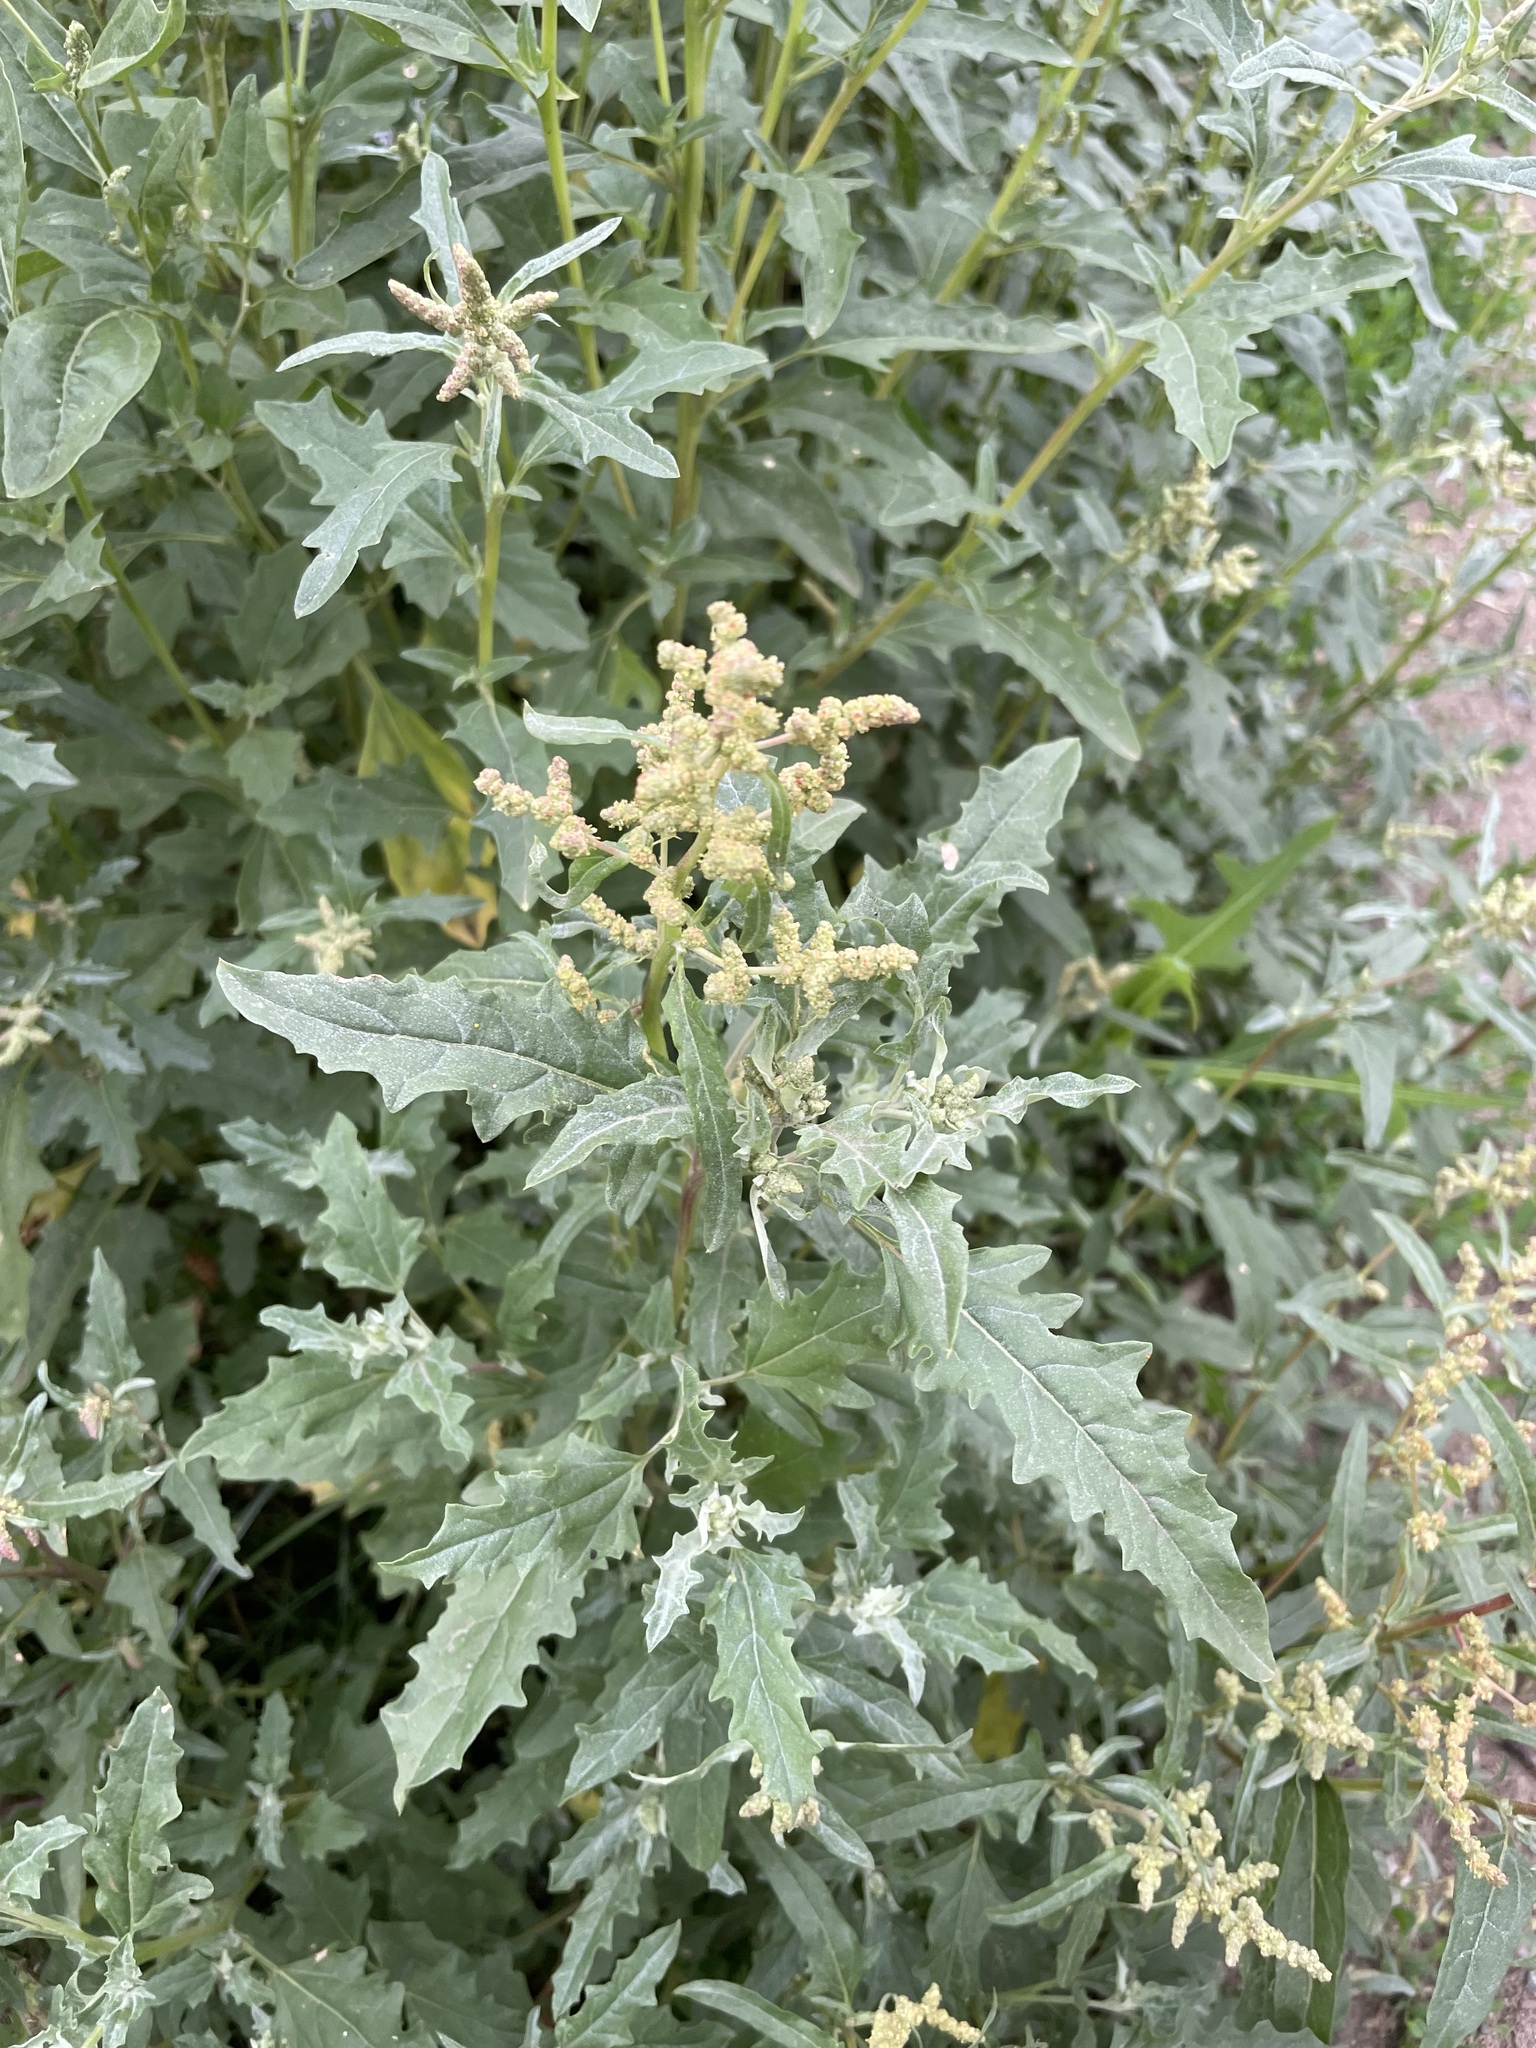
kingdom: Plantae
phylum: Tracheophyta
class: Magnoliopsida
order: Caryophyllales
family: Amaranthaceae
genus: Atriplex
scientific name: Atriplex tatarica
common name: Tatarian orache
